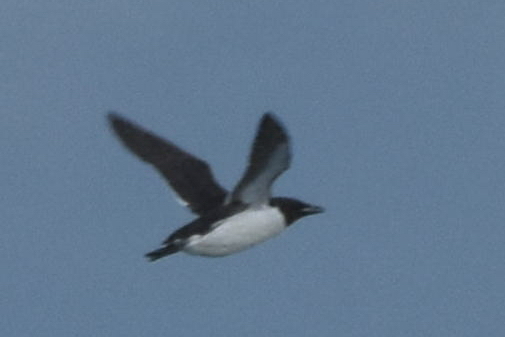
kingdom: Animalia
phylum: Chordata
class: Aves
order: Charadriiformes
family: Alcidae
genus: Uria
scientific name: Uria lomvia
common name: Thick-billed murre
